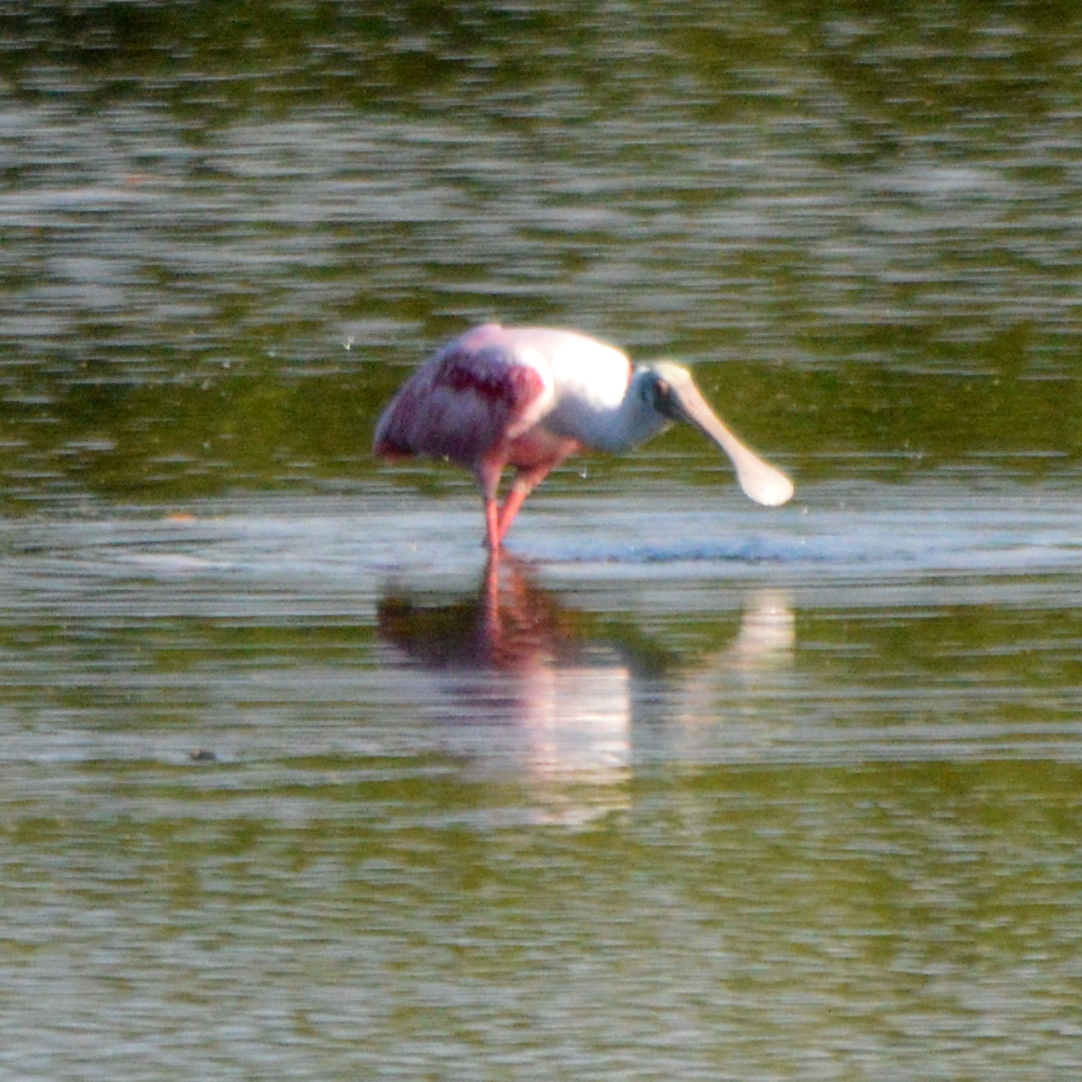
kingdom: Animalia
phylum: Chordata
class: Aves
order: Pelecaniformes
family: Threskiornithidae
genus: Platalea
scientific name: Platalea ajaja
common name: Roseate spoonbill
